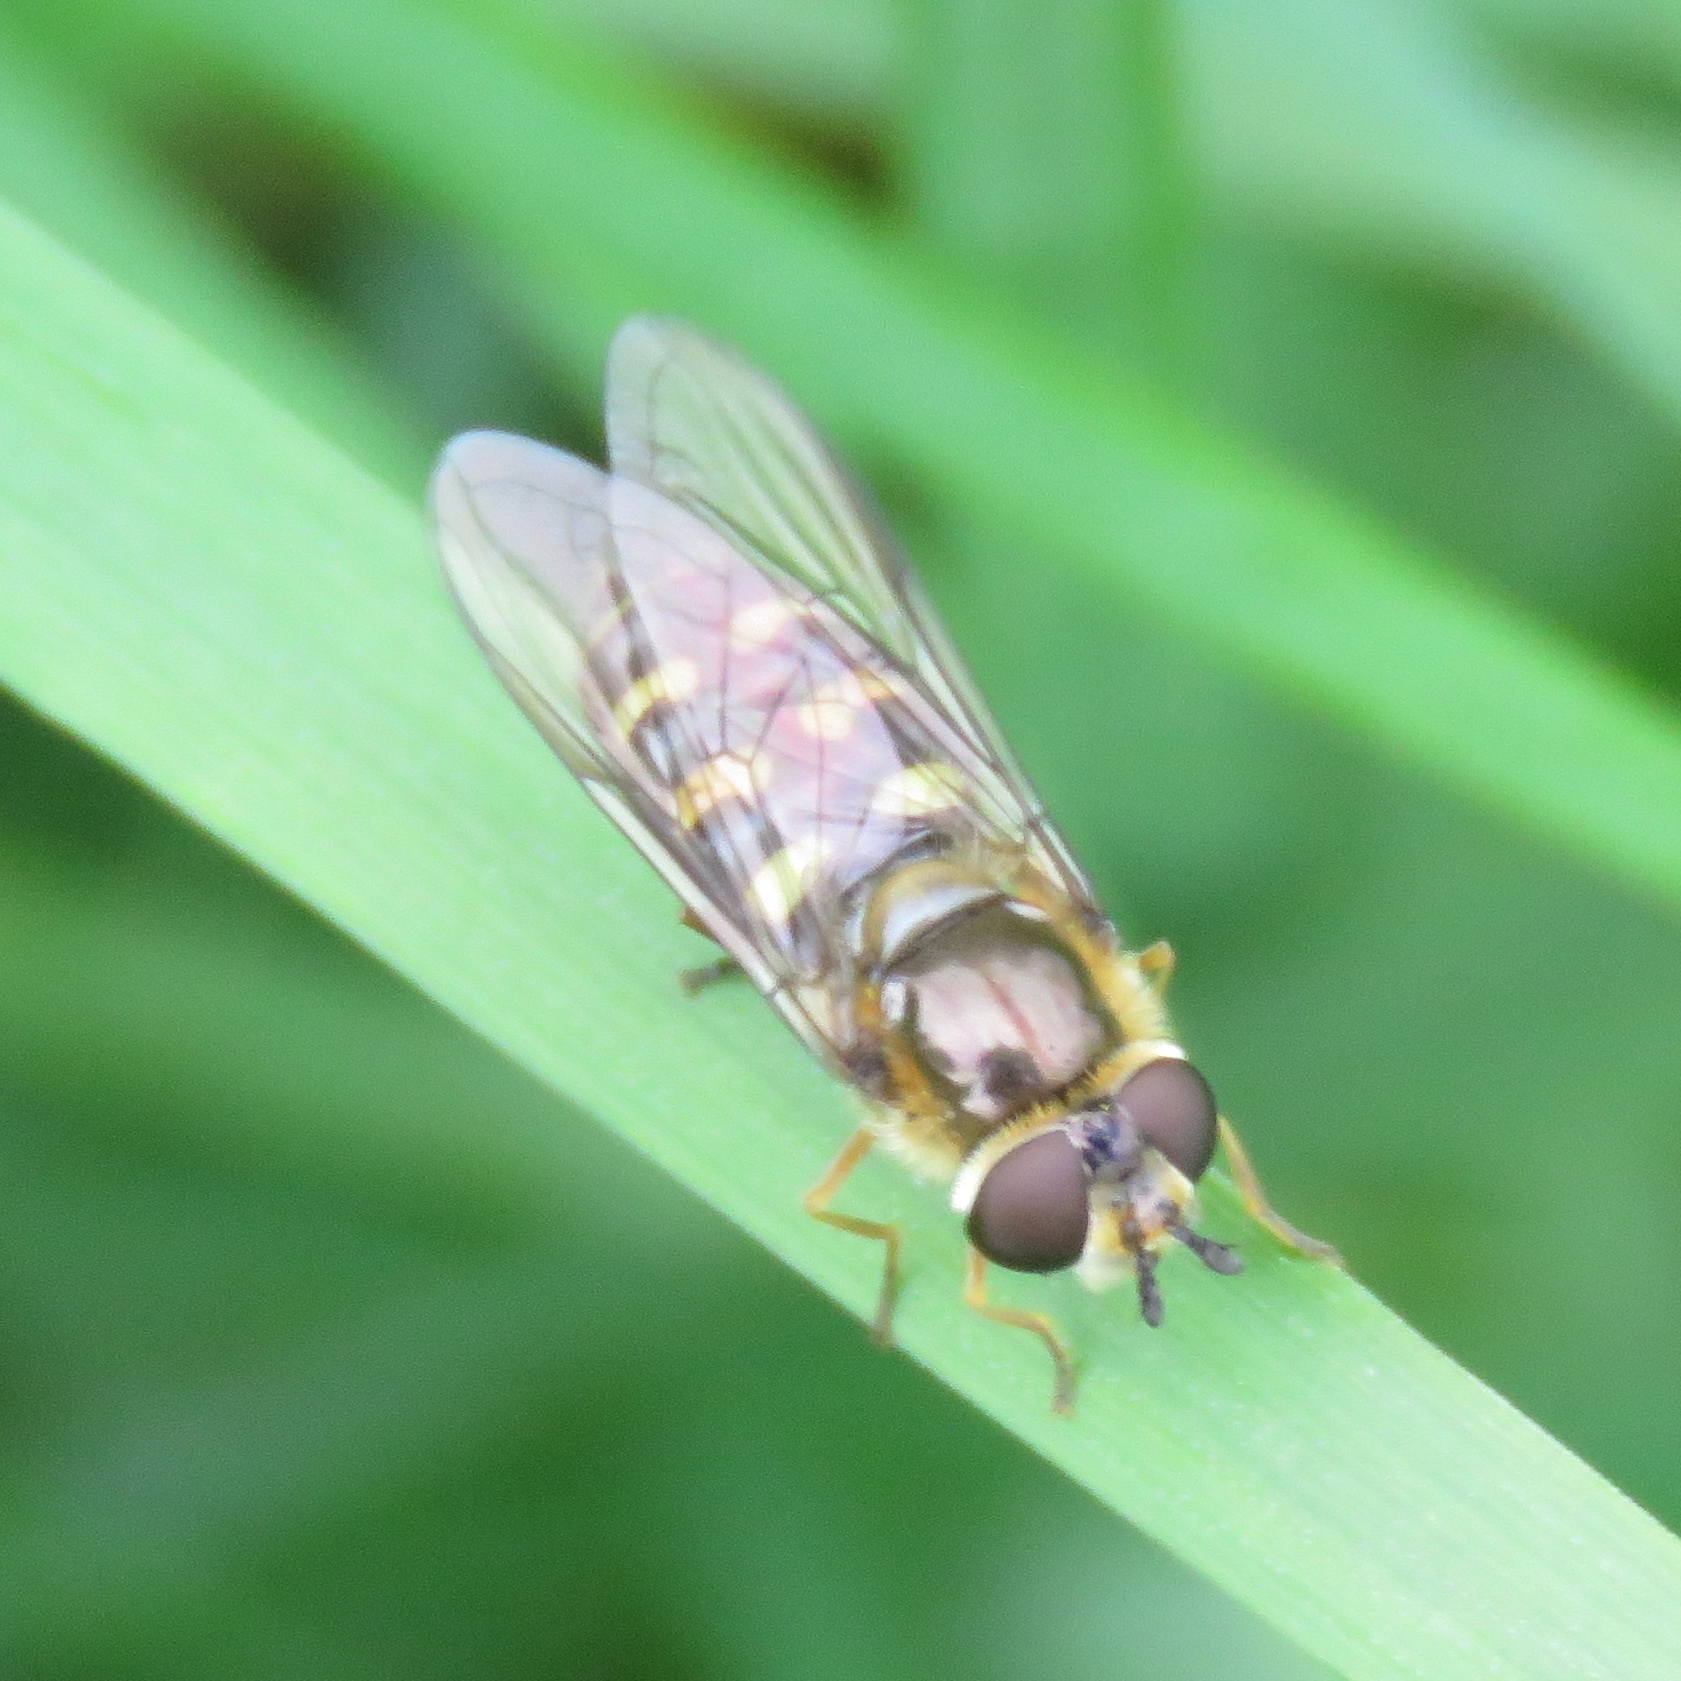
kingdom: Animalia
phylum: Arthropoda
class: Insecta
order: Diptera
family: Syrphidae
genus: Eupeodes
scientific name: Eupeodes
